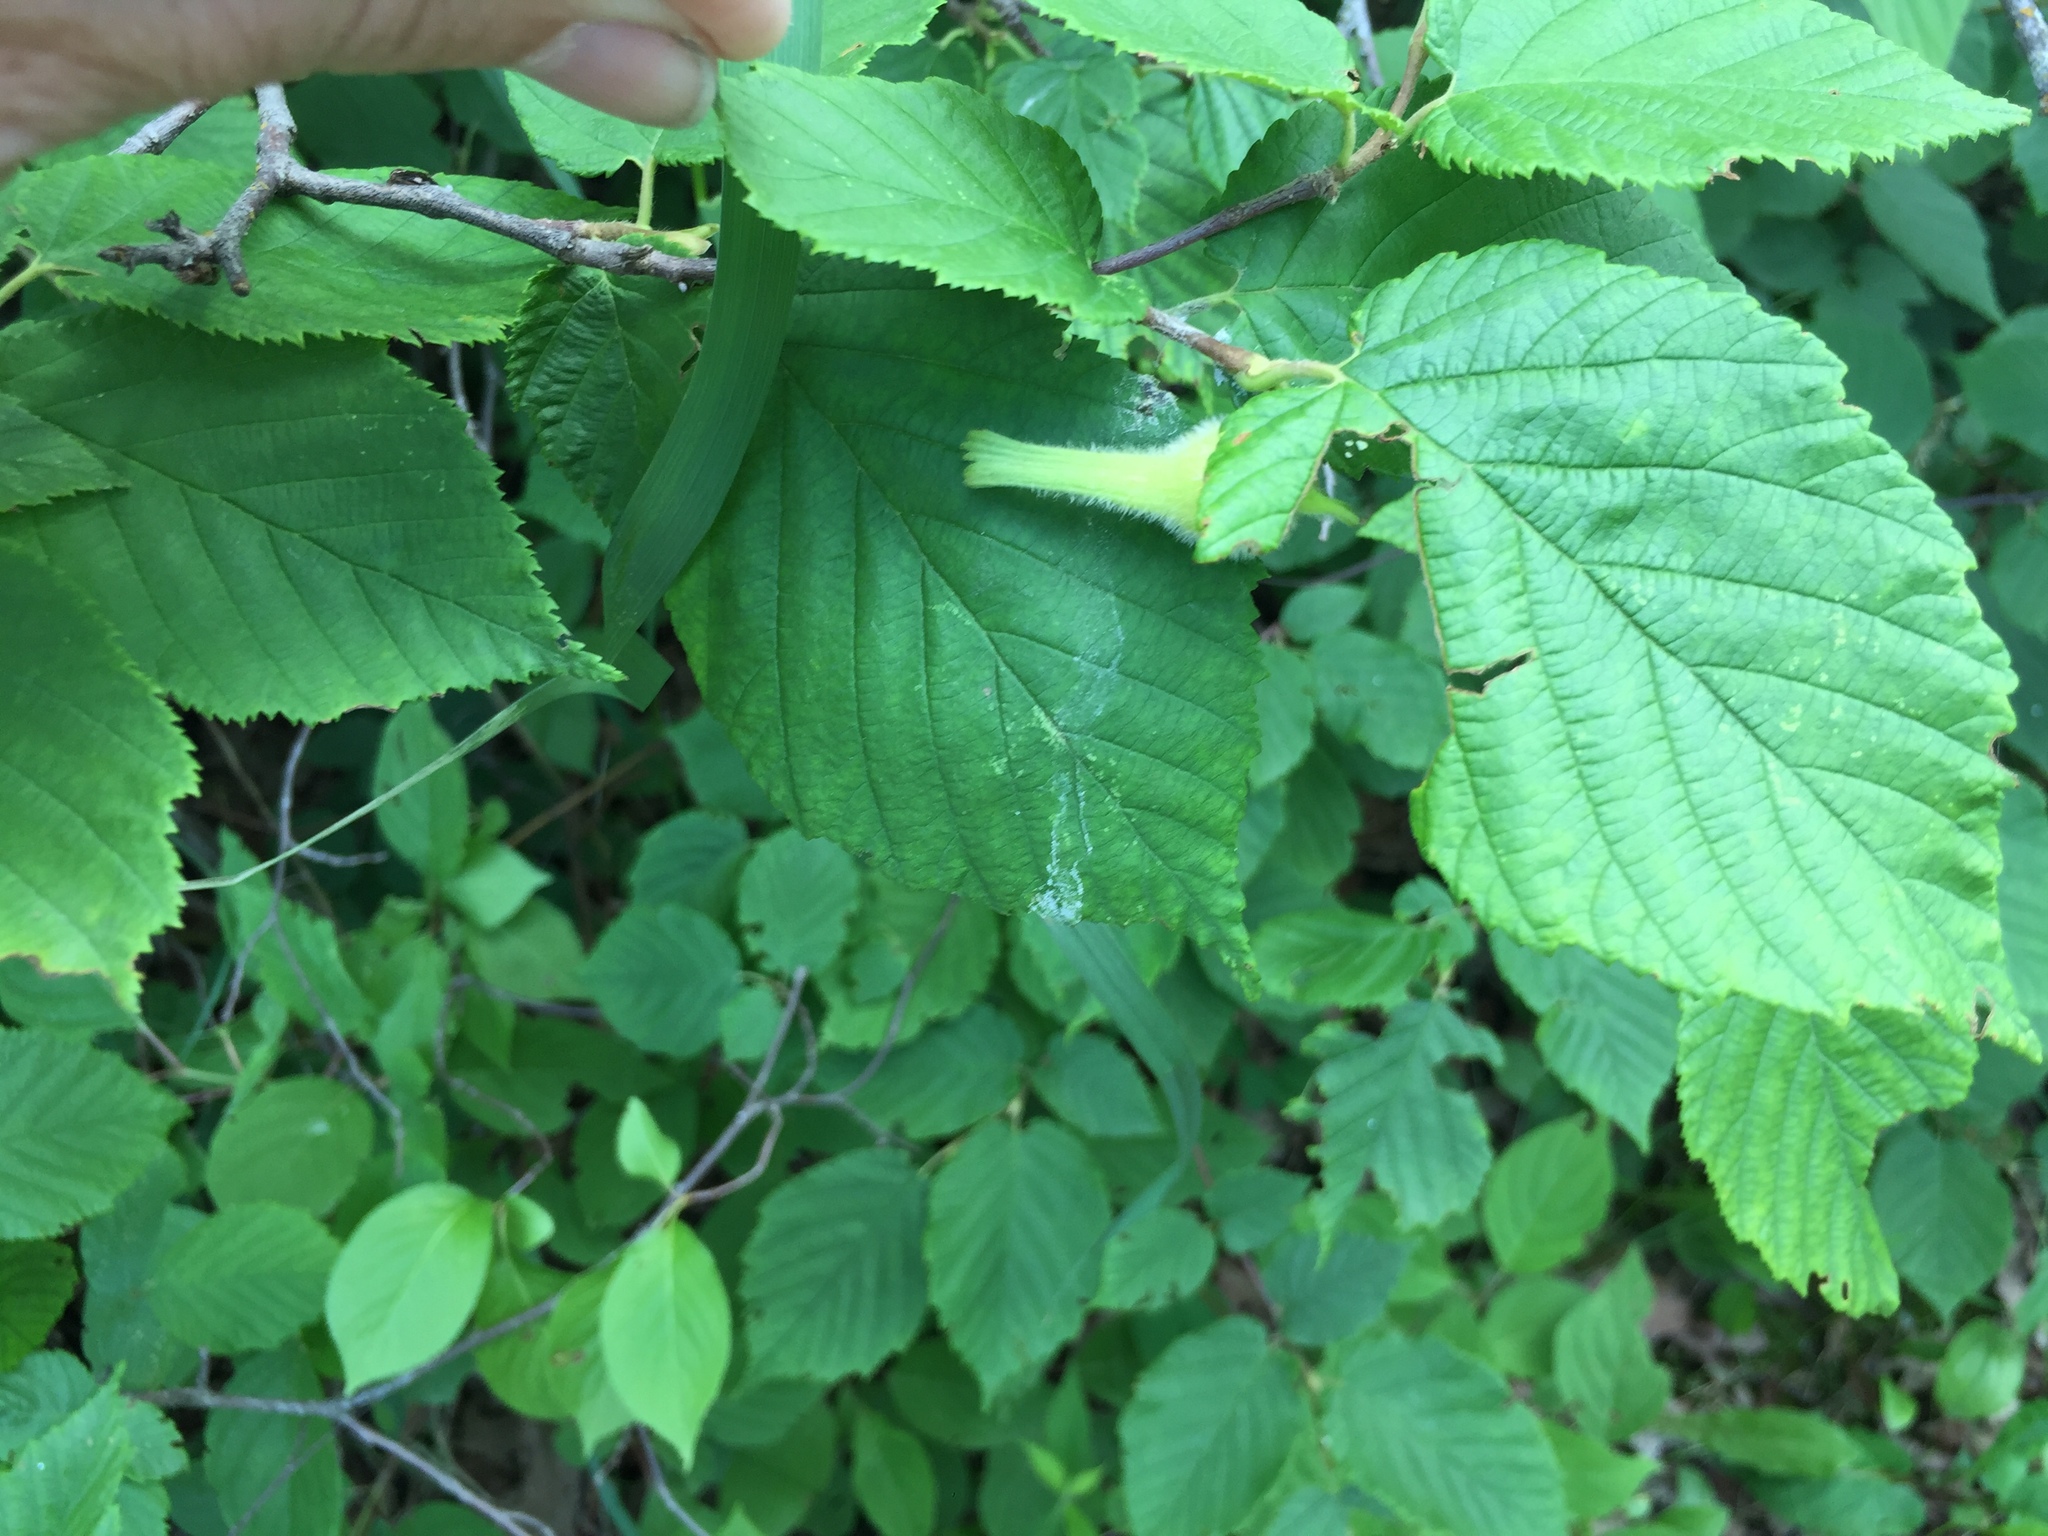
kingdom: Plantae
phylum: Tracheophyta
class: Magnoliopsida
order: Fagales
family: Betulaceae
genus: Corylus
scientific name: Corylus cornuta
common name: Beaked hazel
